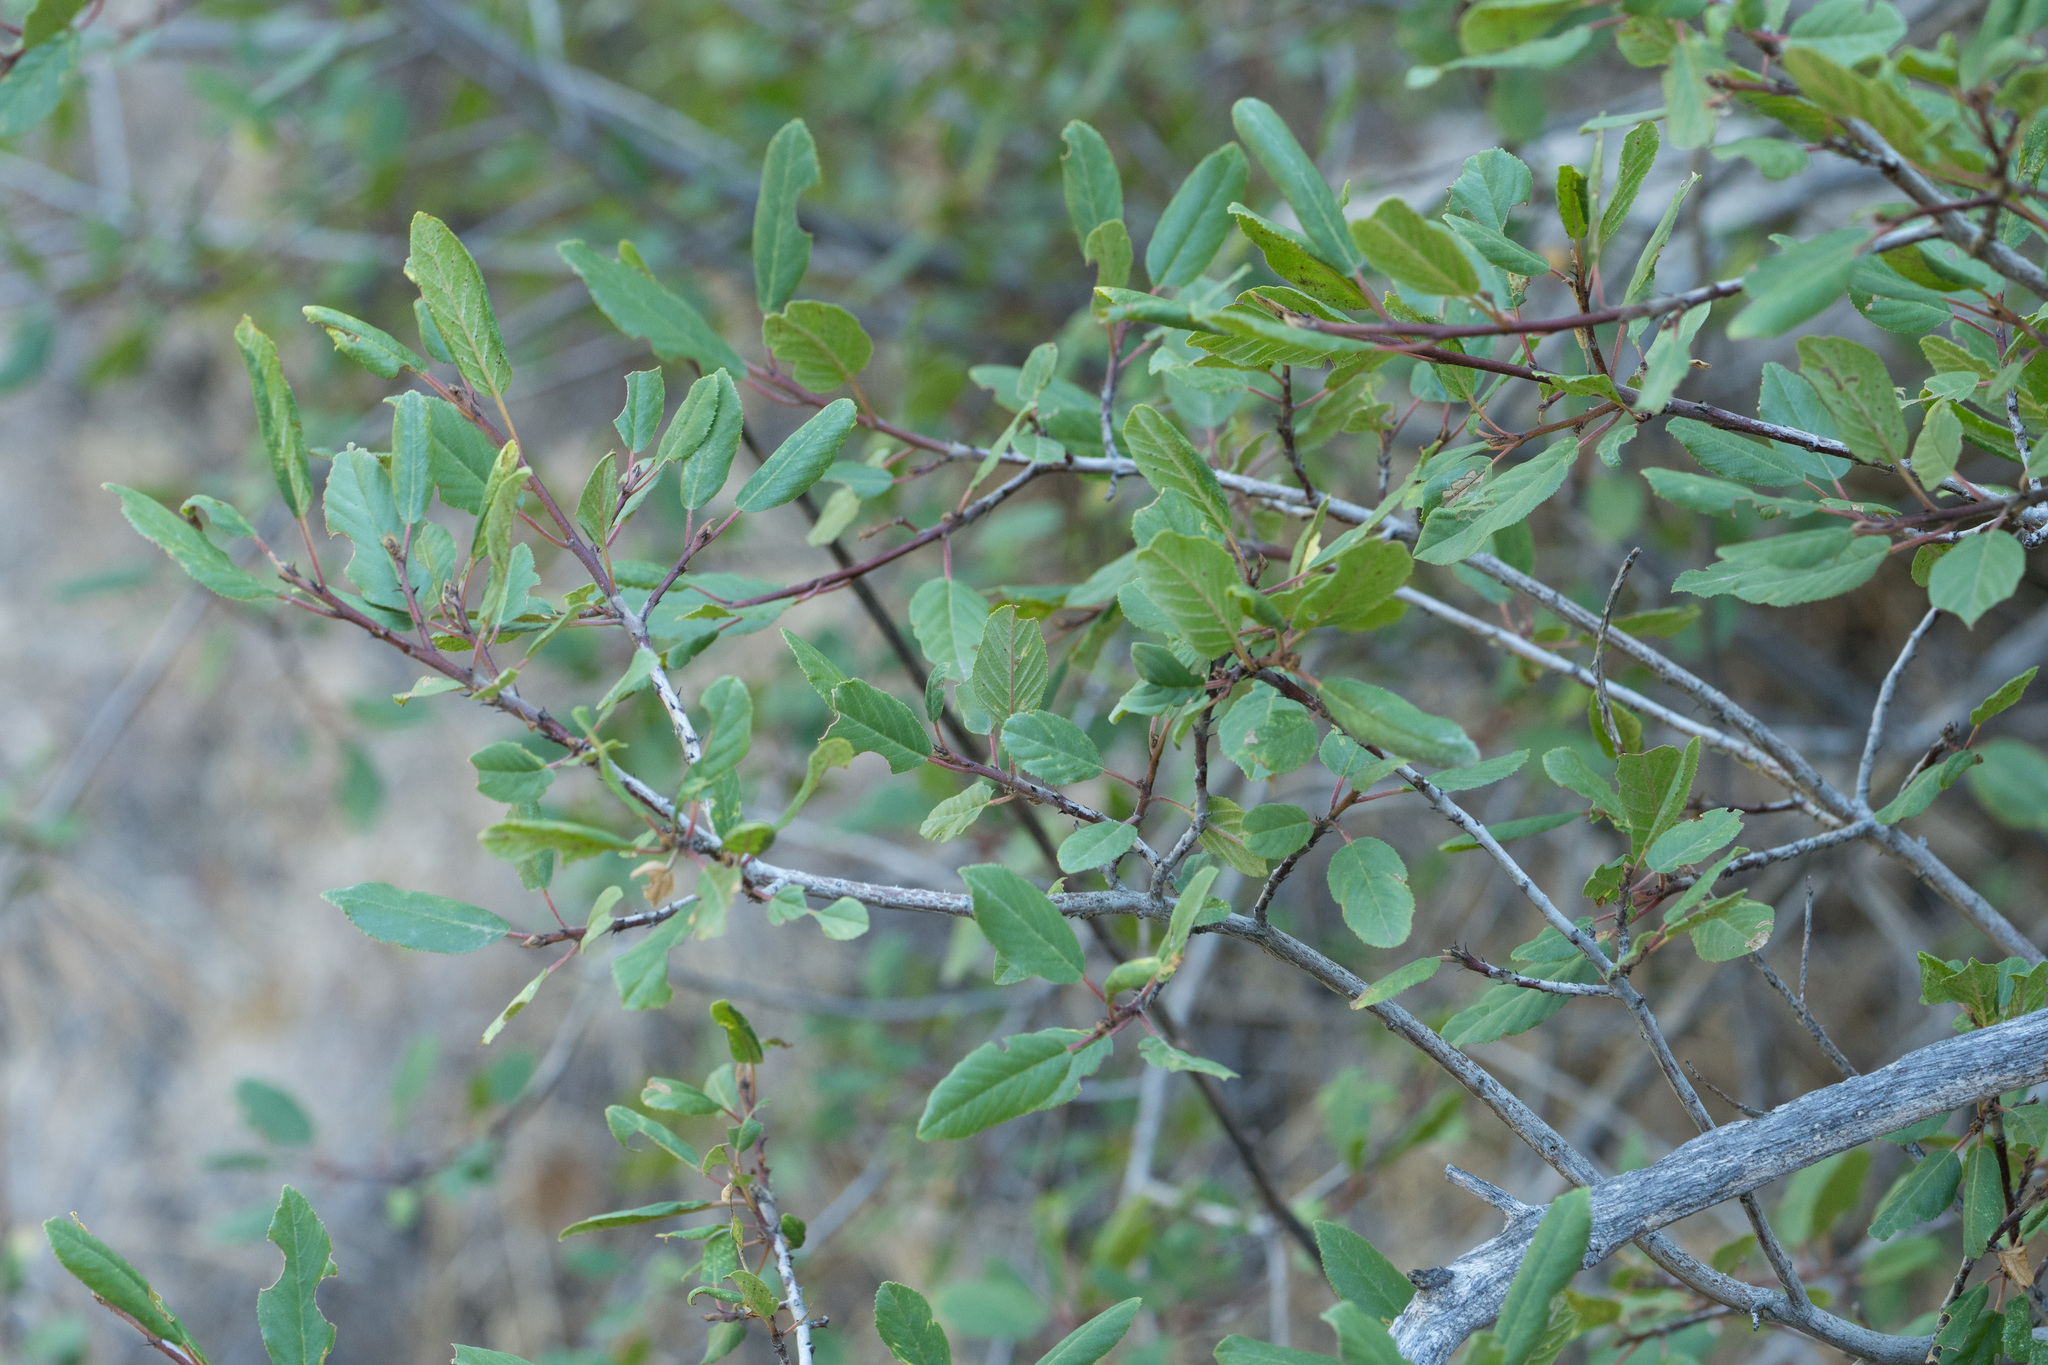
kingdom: Plantae
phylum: Tracheophyta
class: Magnoliopsida
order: Rosales
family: Rhamnaceae
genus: Frangula
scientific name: Frangula californica
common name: California buckthorn
